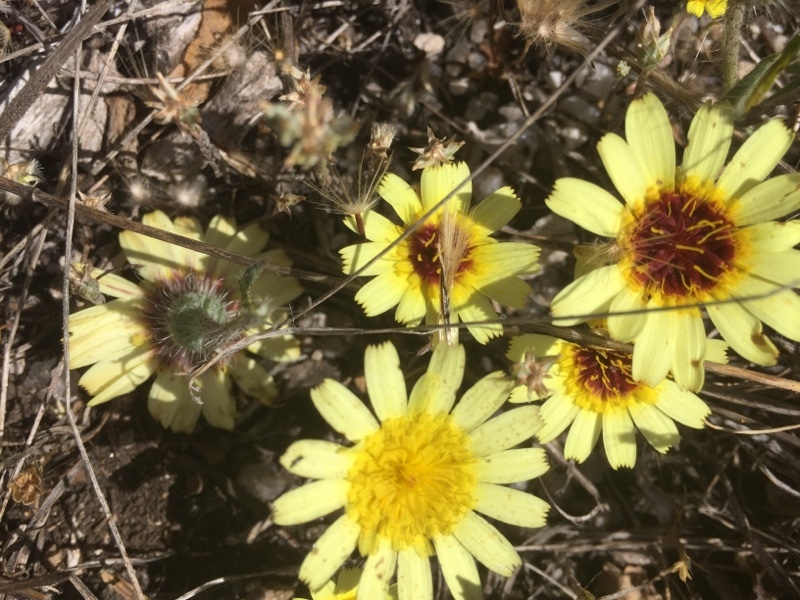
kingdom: Plantae
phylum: Tracheophyta
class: Magnoliopsida
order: Asterales
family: Asteraceae
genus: Hispidella
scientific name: Hispidella hispanica
